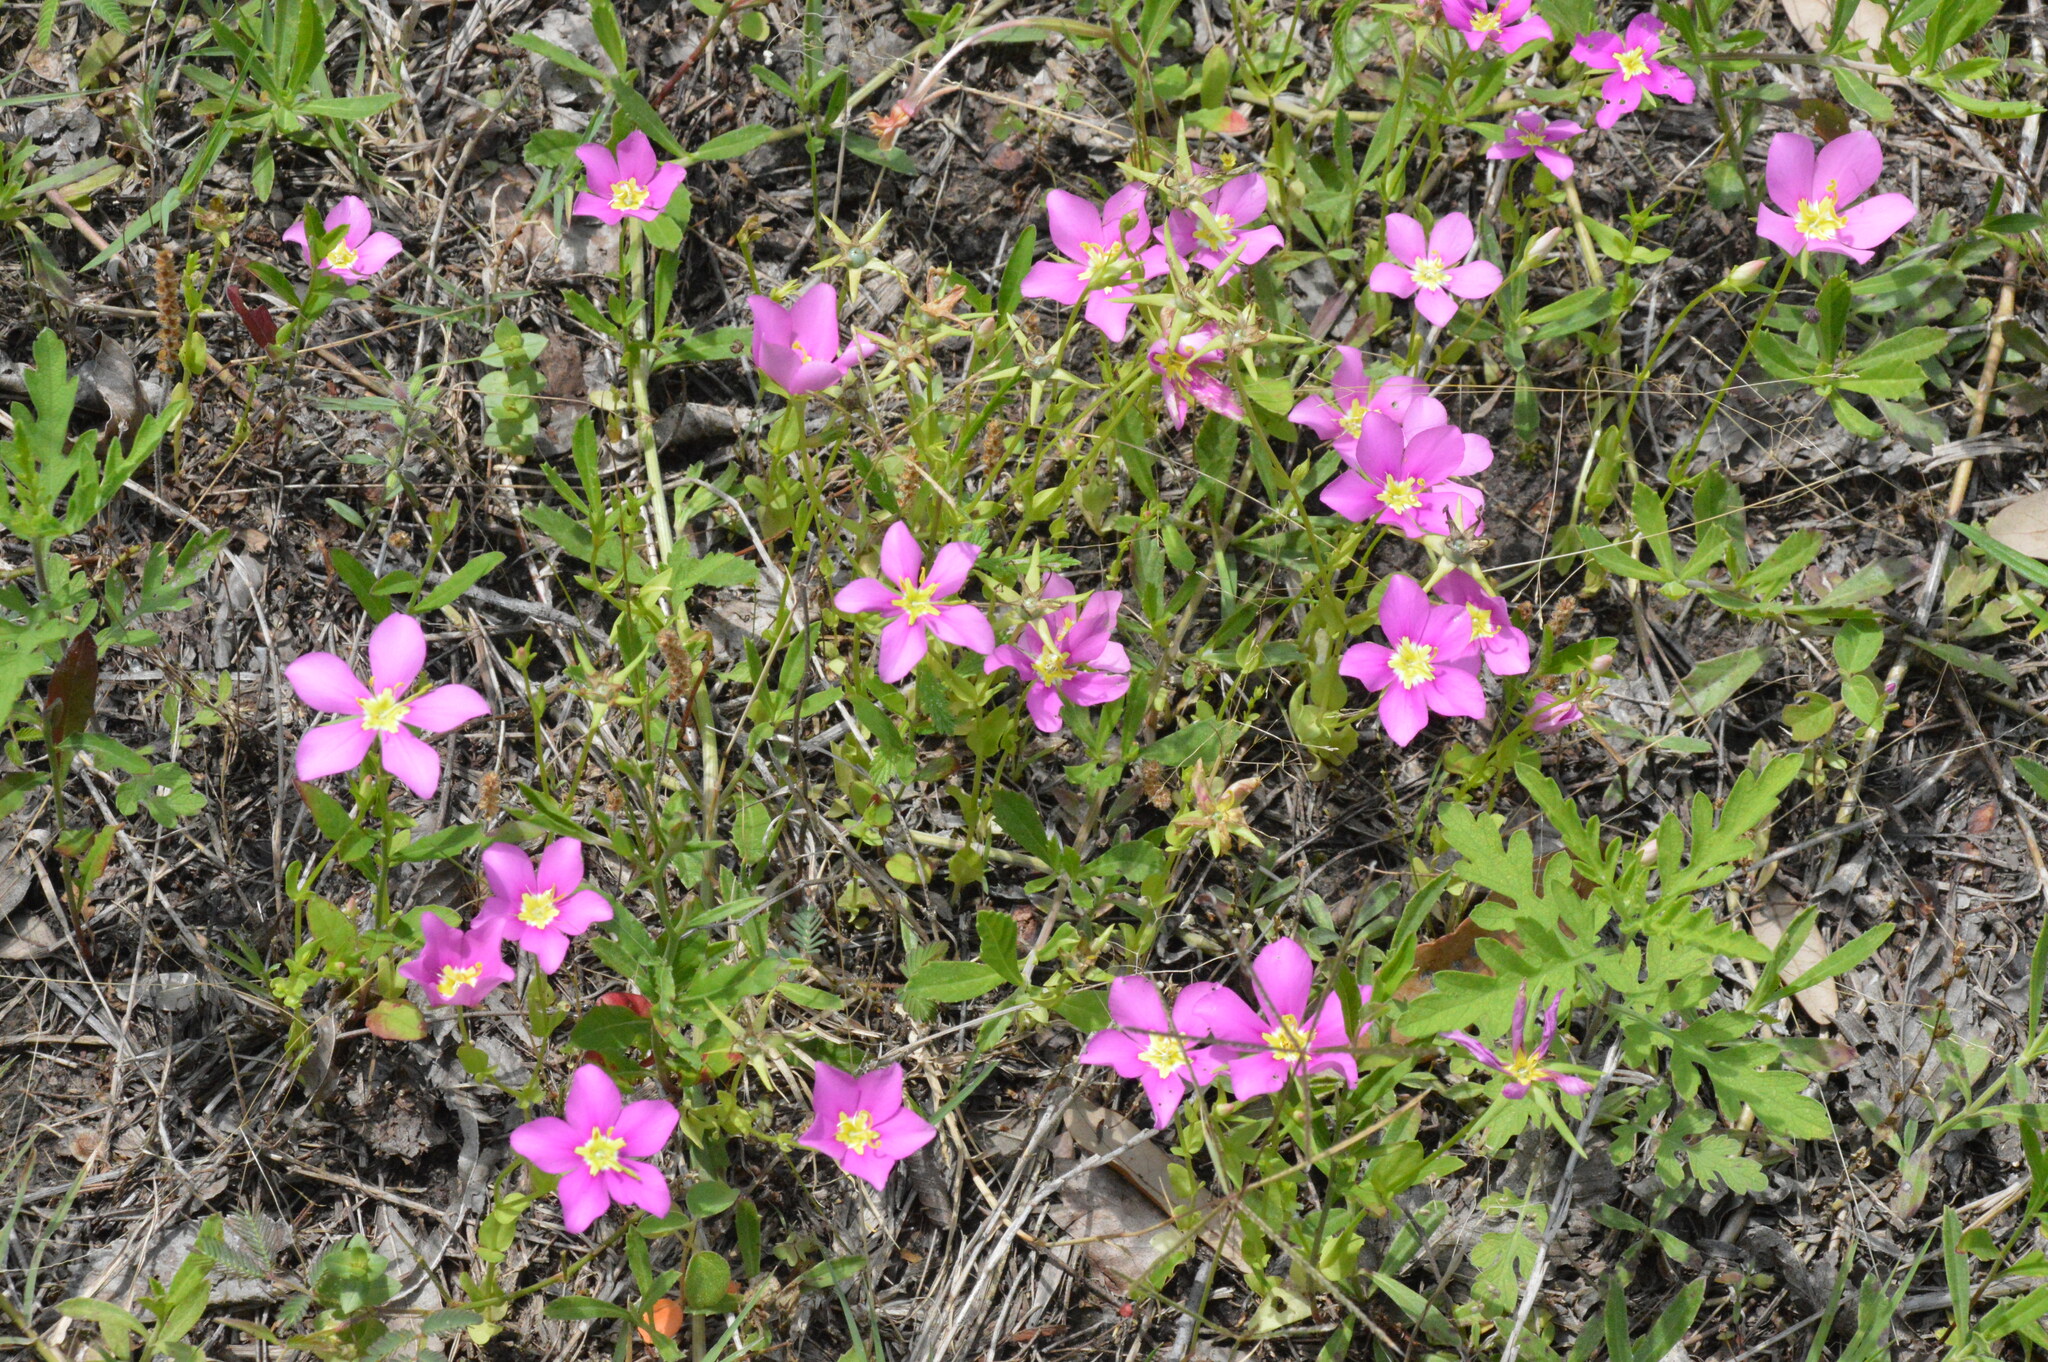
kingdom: Plantae
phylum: Tracheophyta
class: Magnoliopsida
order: Gentianales
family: Gentianaceae
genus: Sabatia
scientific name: Sabatia campestris
